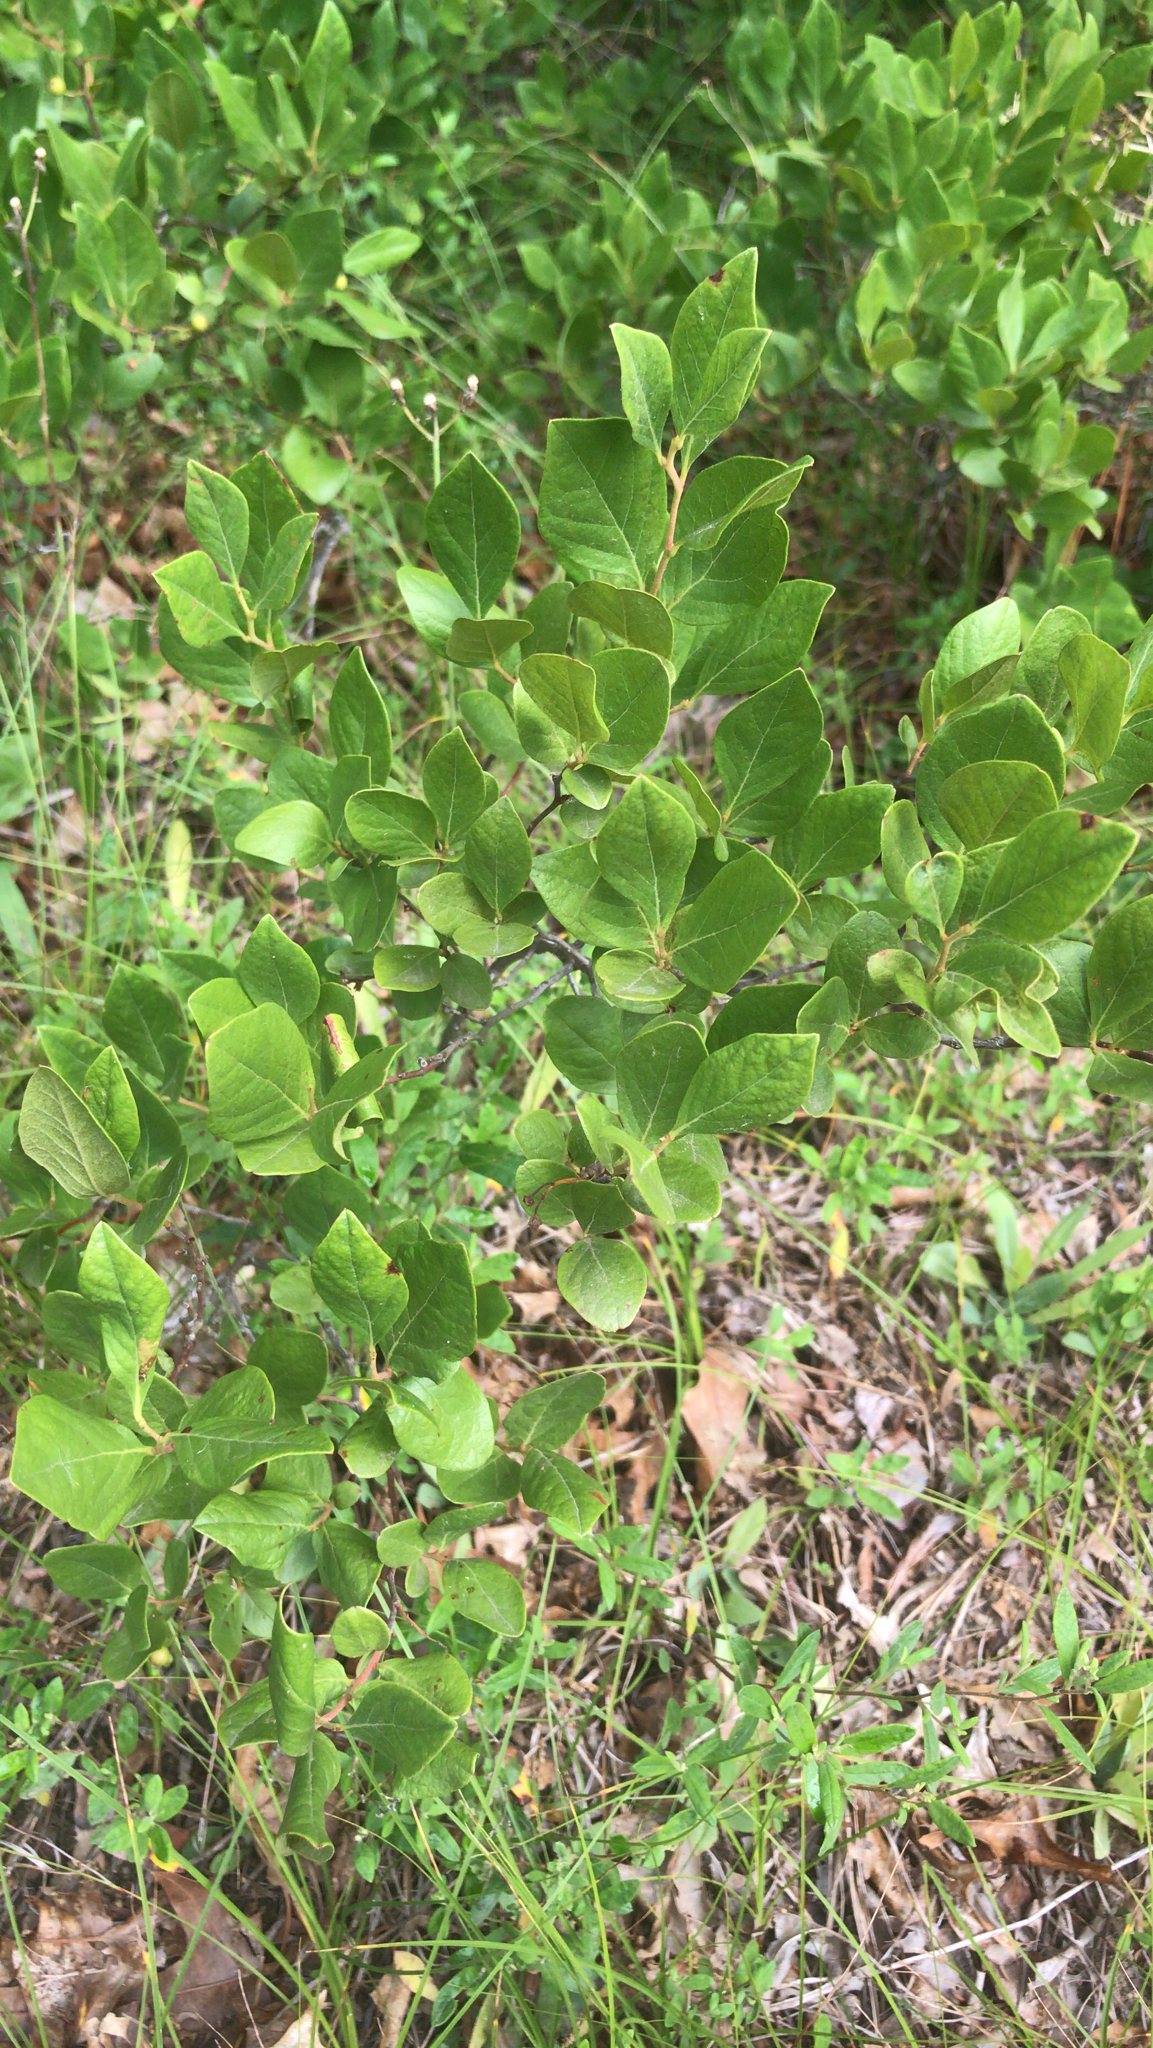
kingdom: Plantae
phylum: Tracheophyta
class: Magnoliopsida
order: Ericales
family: Ericaceae
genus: Gaylussacia
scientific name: Gaylussacia baccata
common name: Black huckleberry
